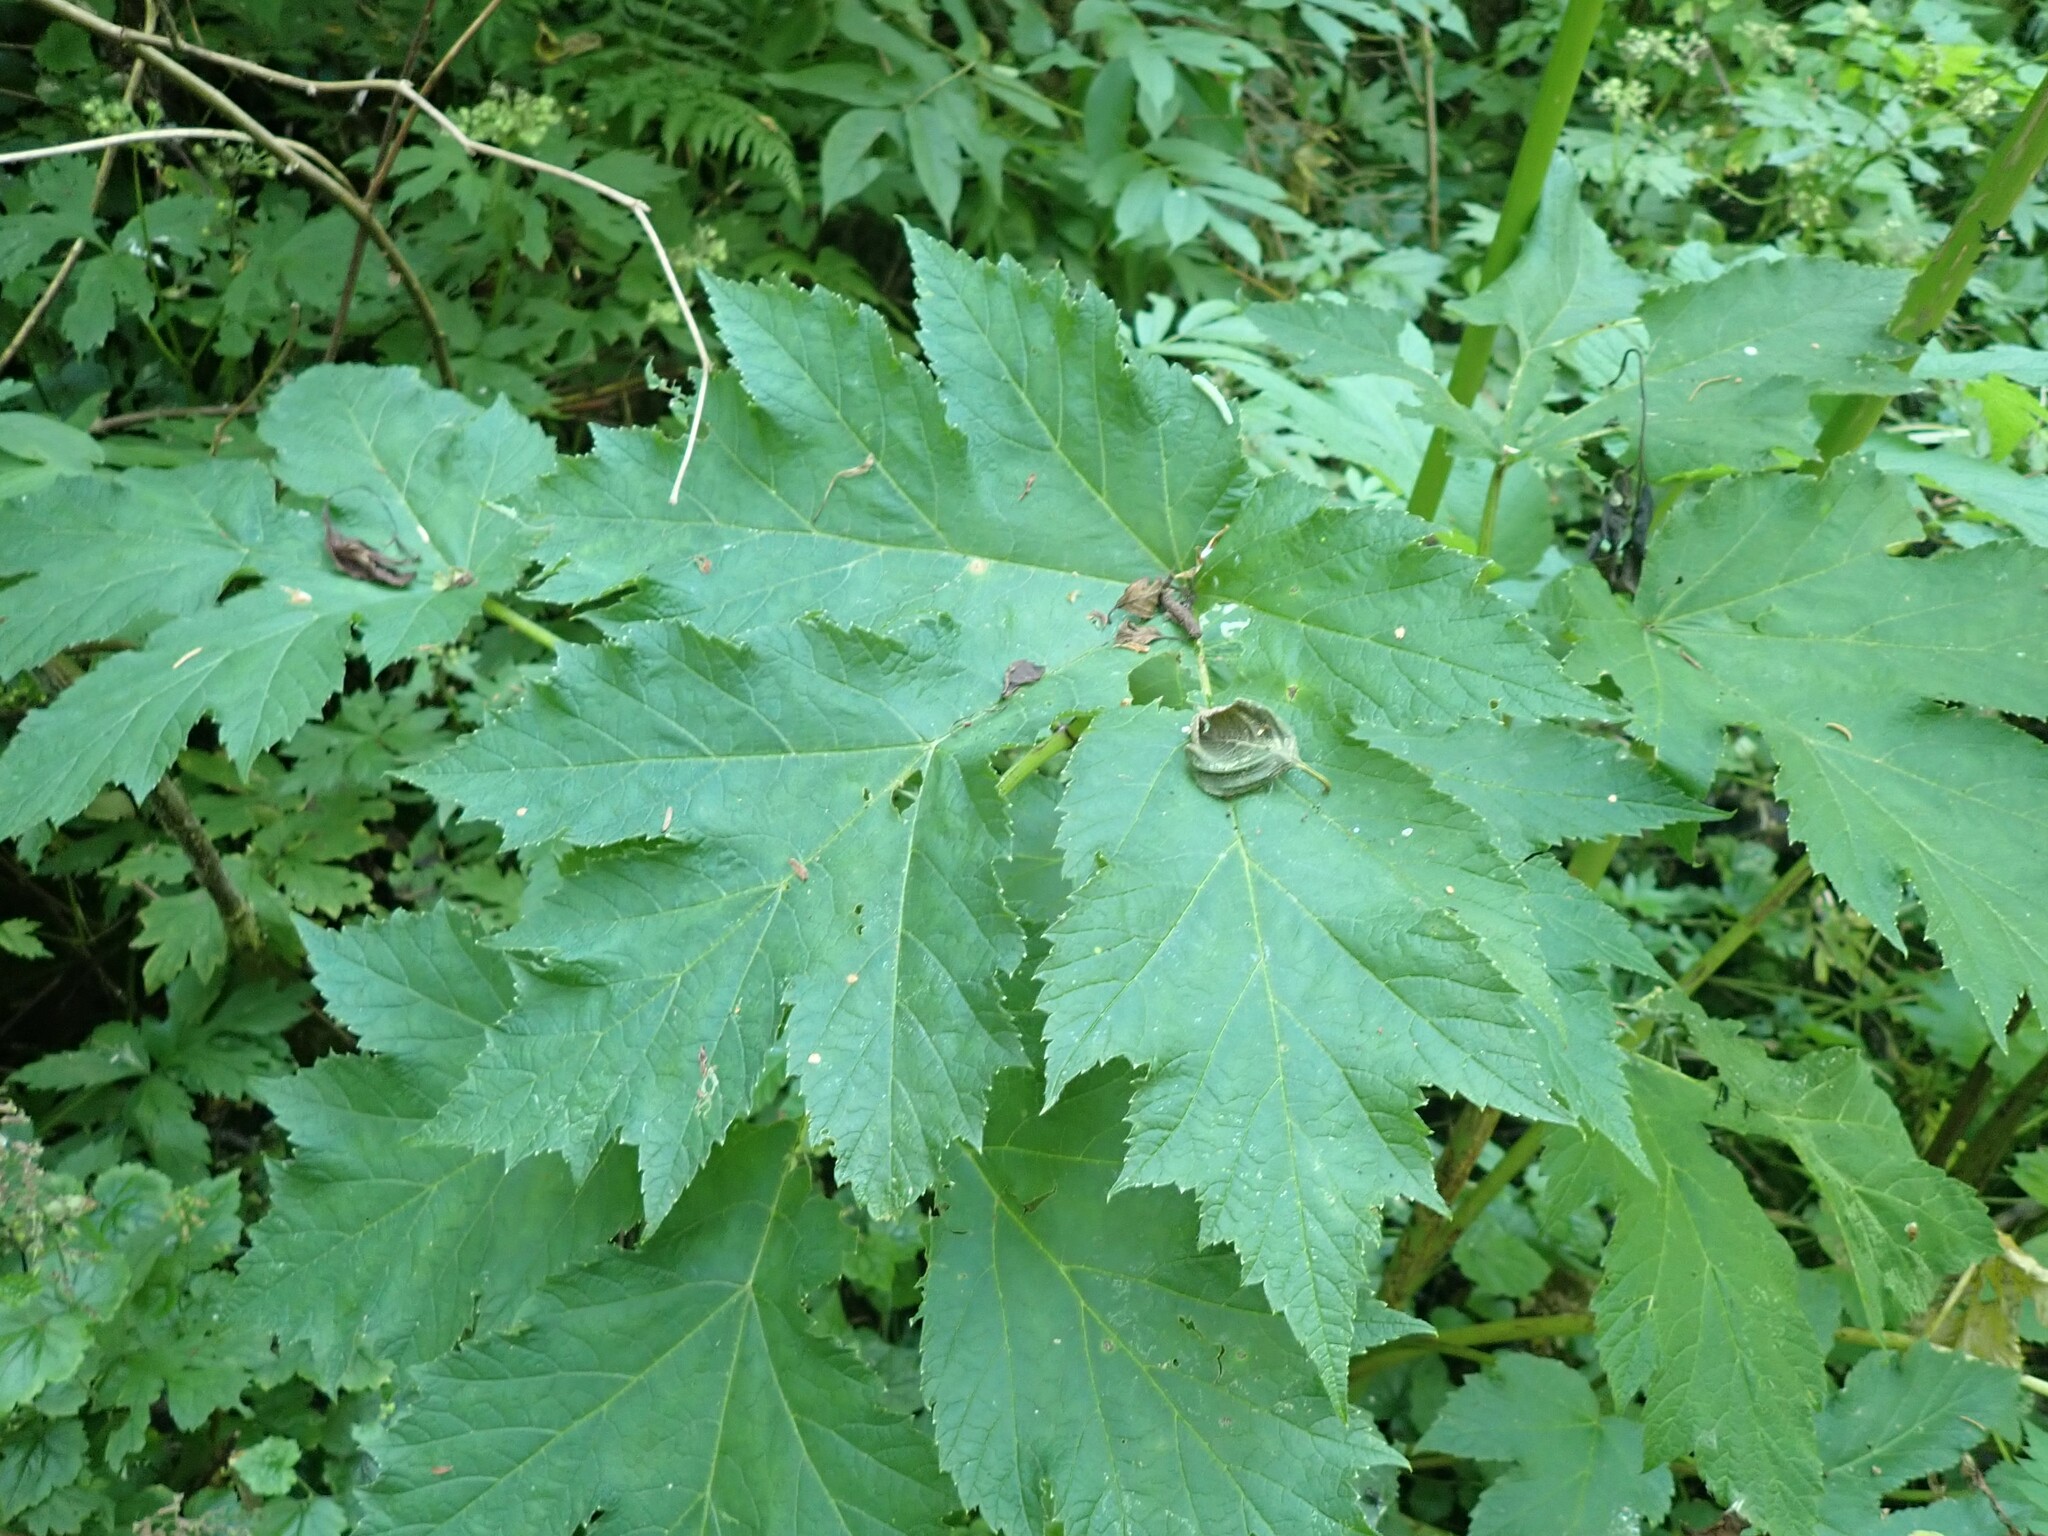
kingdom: Plantae
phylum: Tracheophyta
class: Magnoliopsida
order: Apiales
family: Apiaceae
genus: Heracleum
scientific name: Heracleum maximum
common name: American cow parsnip
